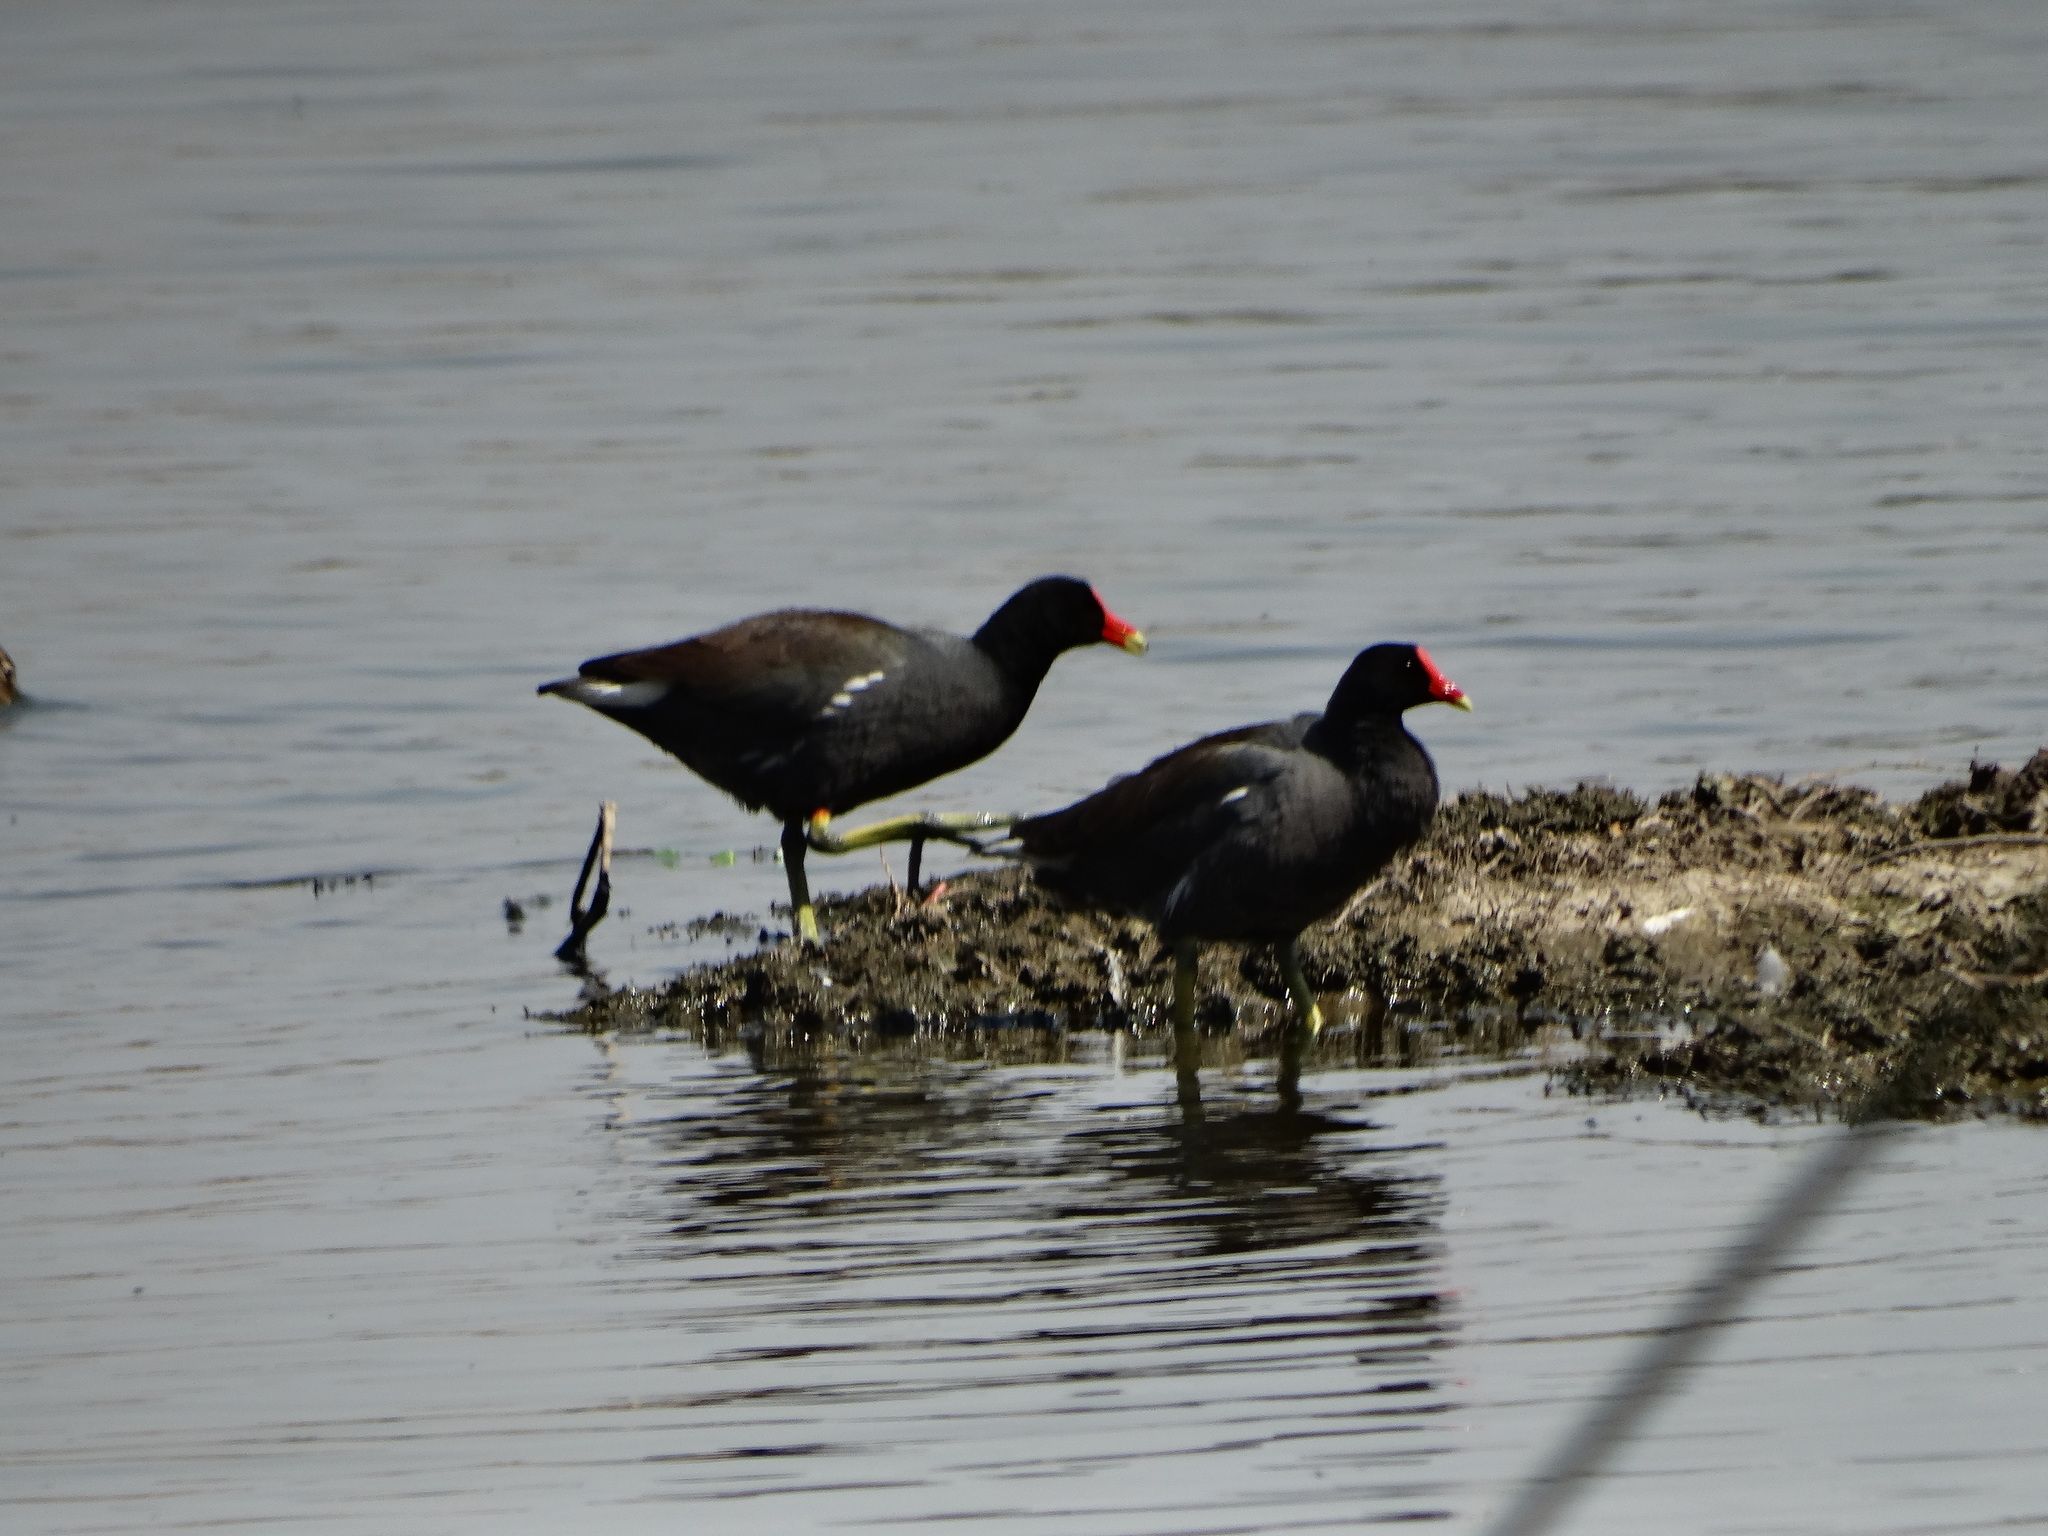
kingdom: Animalia
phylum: Chordata
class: Aves
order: Gruiformes
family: Rallidae
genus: Gallinula
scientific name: Gallinula chloropus
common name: Common moorhen
